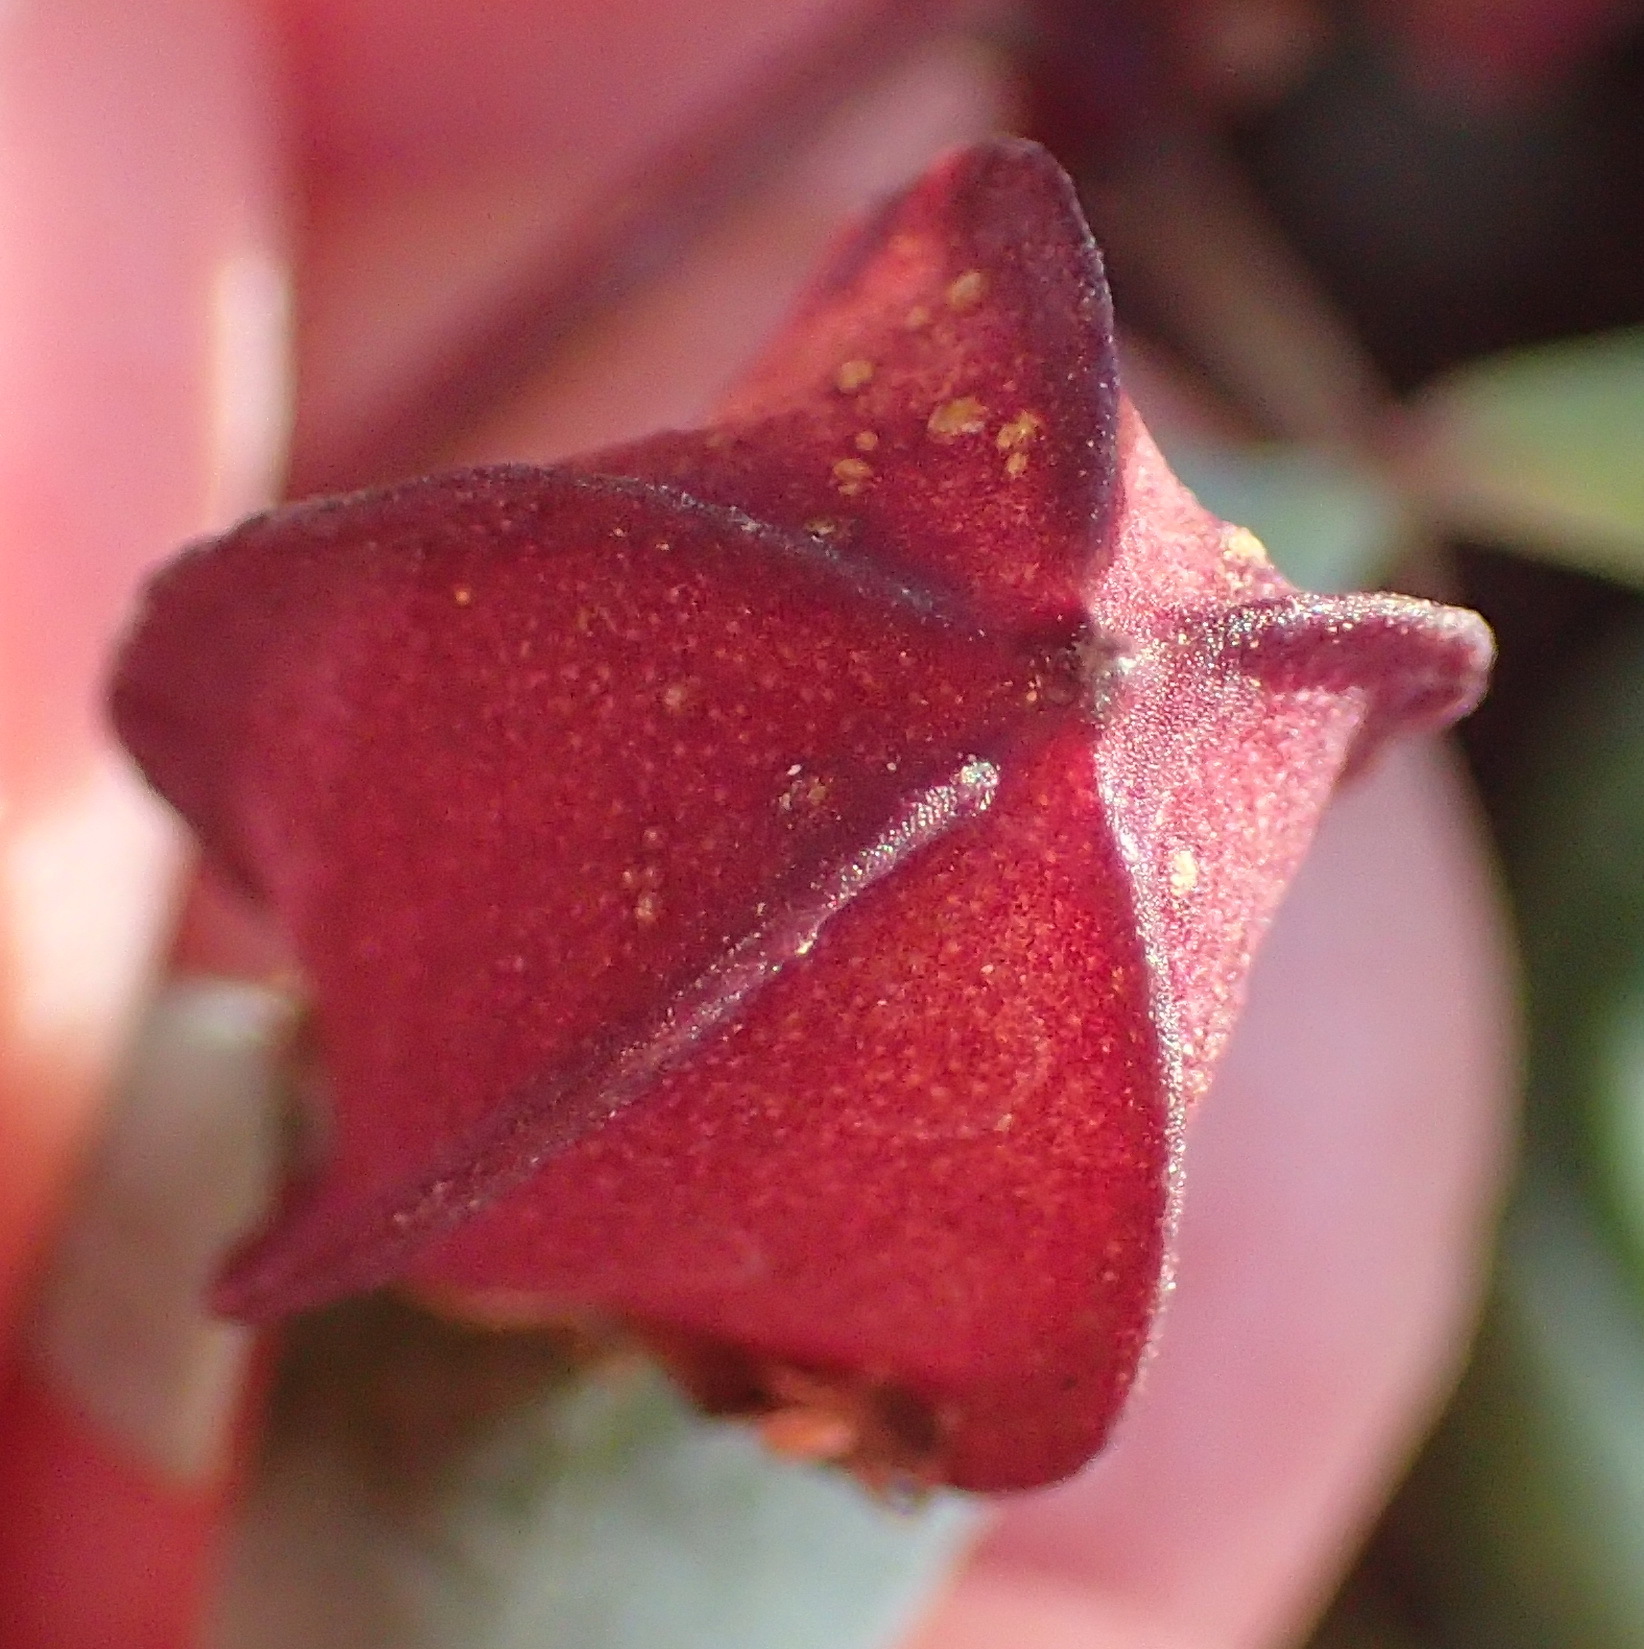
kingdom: Plantae
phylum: Tracheophyta
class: Magnoliopsida
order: Zygophyllales
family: Zygophyllaceae
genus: Roepera
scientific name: Roepera debilis
